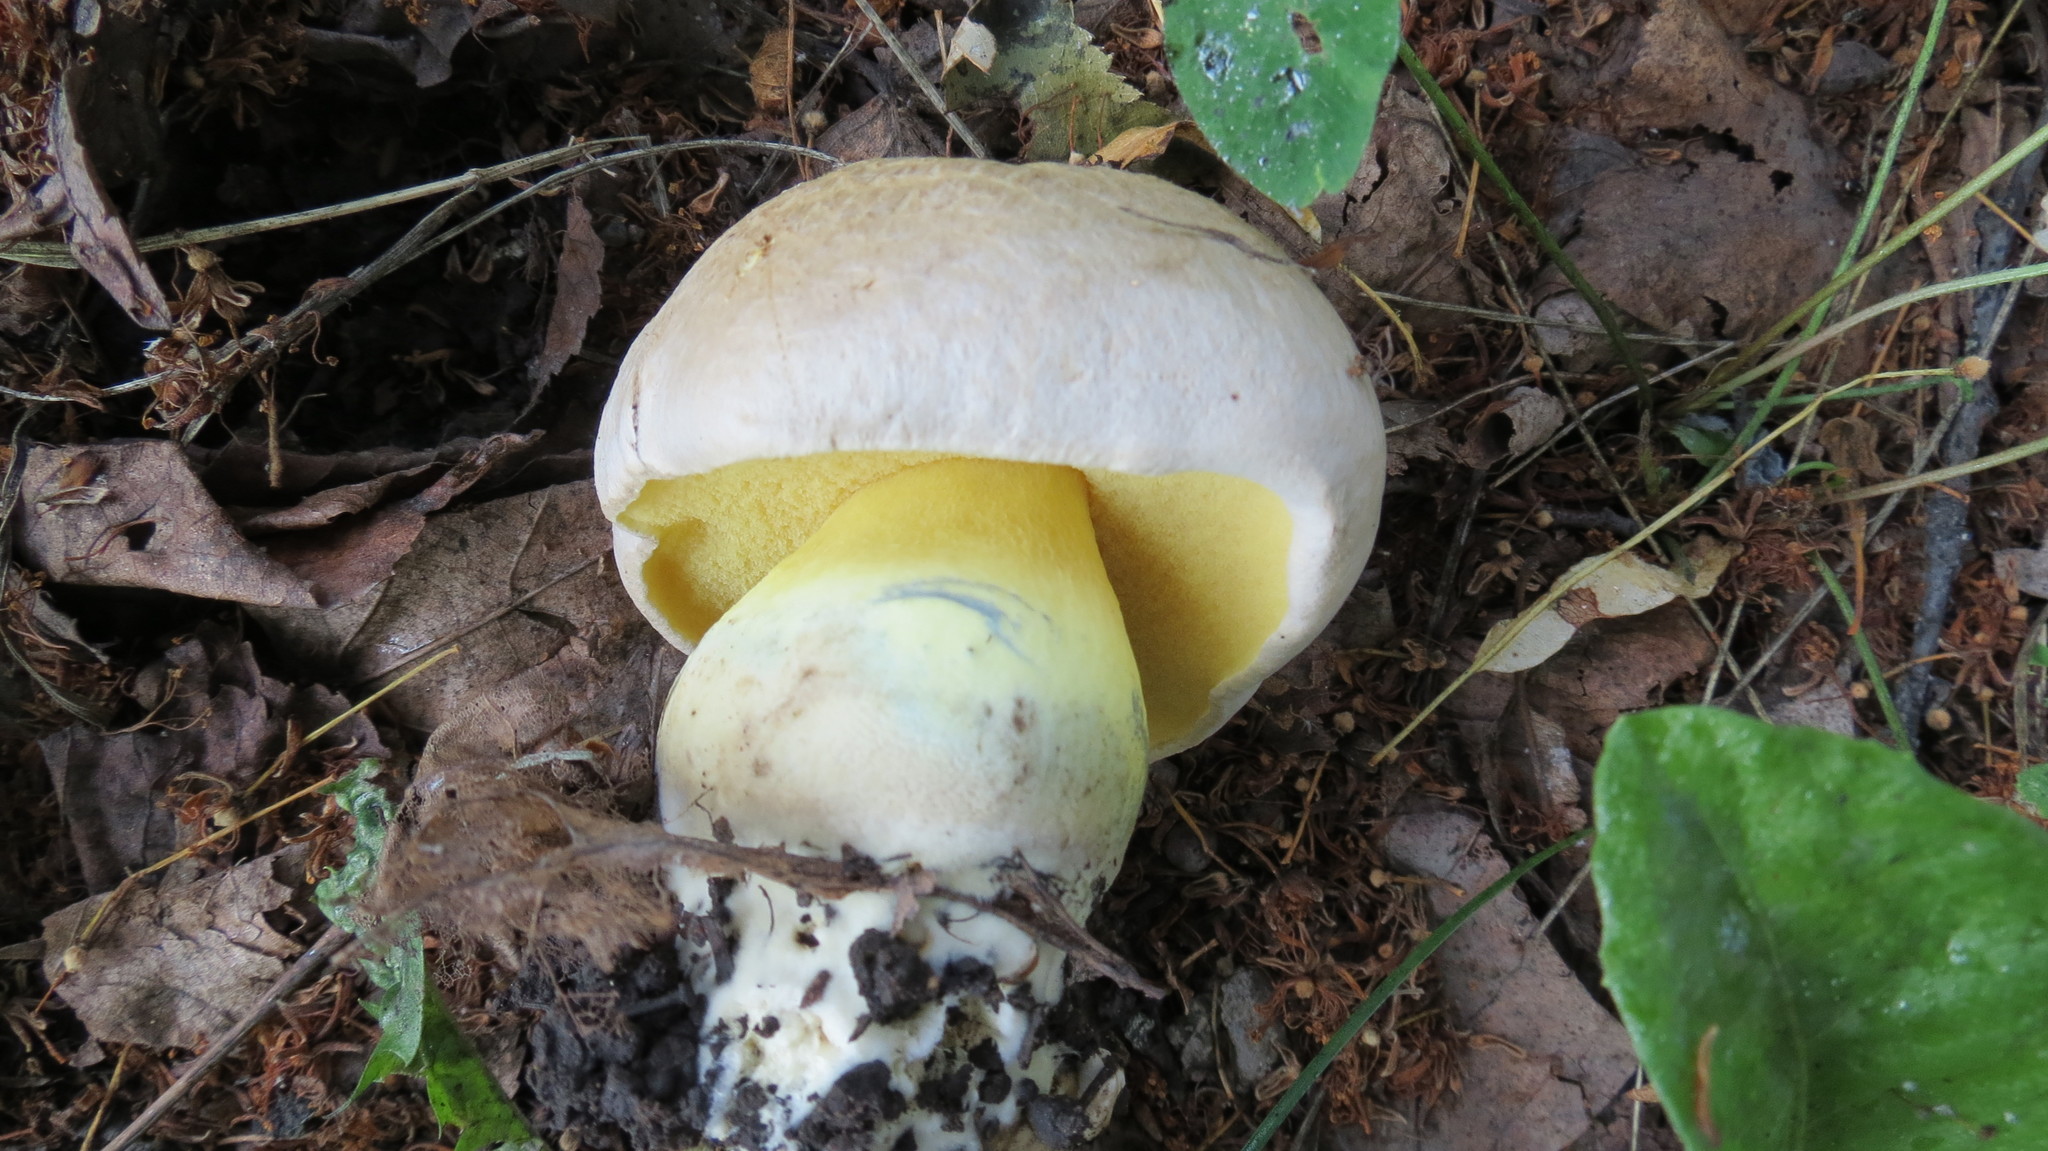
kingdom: Fungi
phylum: Basidiomycota
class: Agaricomycetes
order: Boletales
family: Boletaceae
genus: Caloboletus
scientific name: Caloboletus radicans
